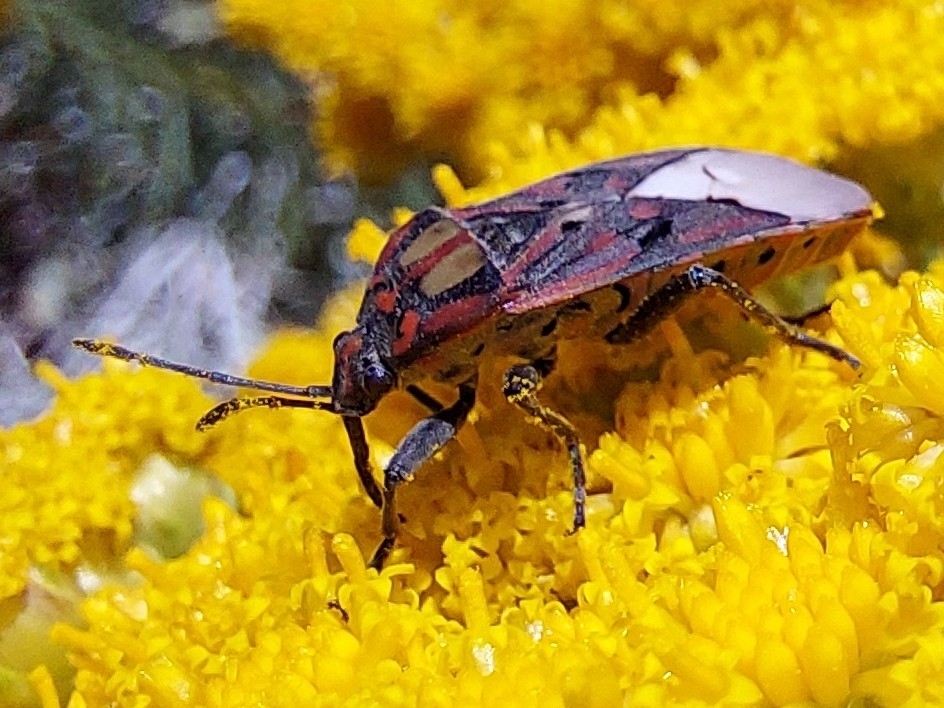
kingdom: Animalia
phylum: Arthropoda
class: Insecta
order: Hemiptera
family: Lygaeidae
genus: Spilostethus
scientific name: Spilostethus pandurus
